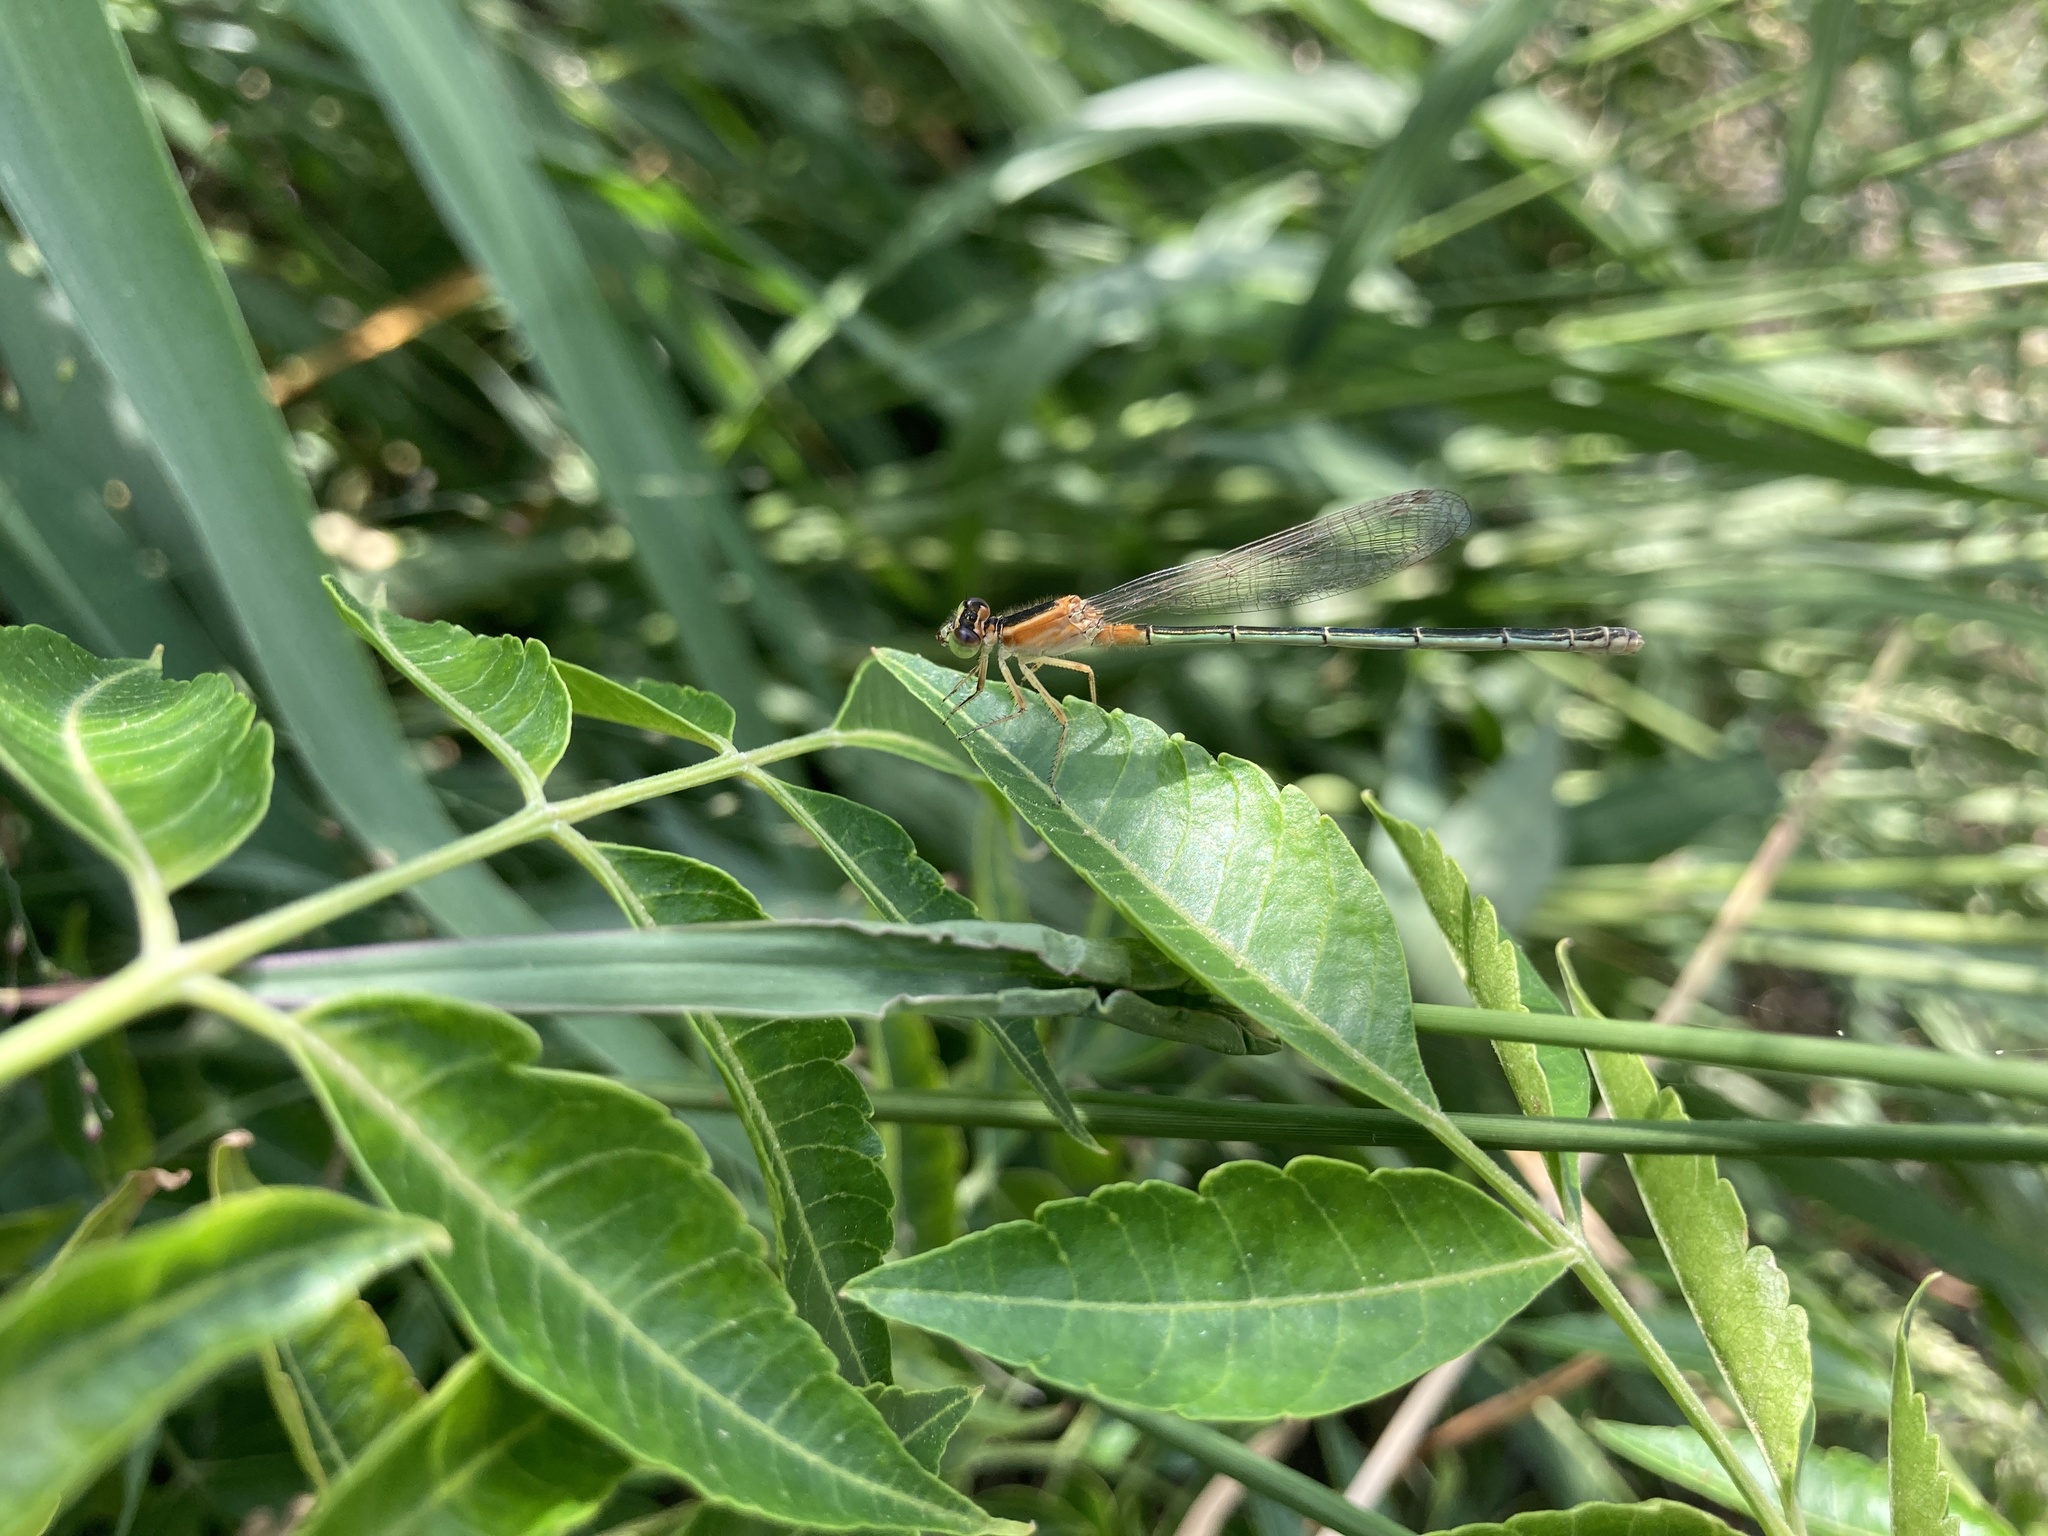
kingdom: Animalia
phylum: Arthropoda
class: Insecta
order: Odonata
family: Coenagrionidae
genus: Ischnura
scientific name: Ischnura senegalensis
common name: Tropical bluetail
